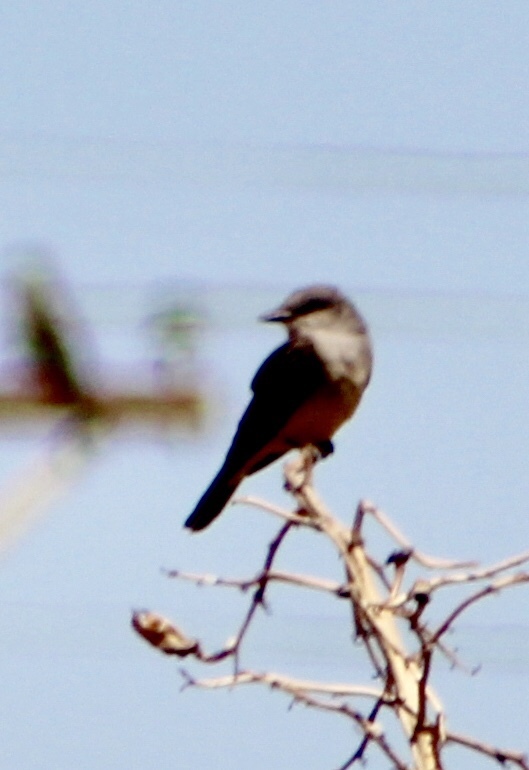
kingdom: Animalia
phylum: Chordata
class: Aves
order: Passeriformes
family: Tyrannidae
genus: Tyrannus
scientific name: Tyrannus verticalis
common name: Western kingbird
